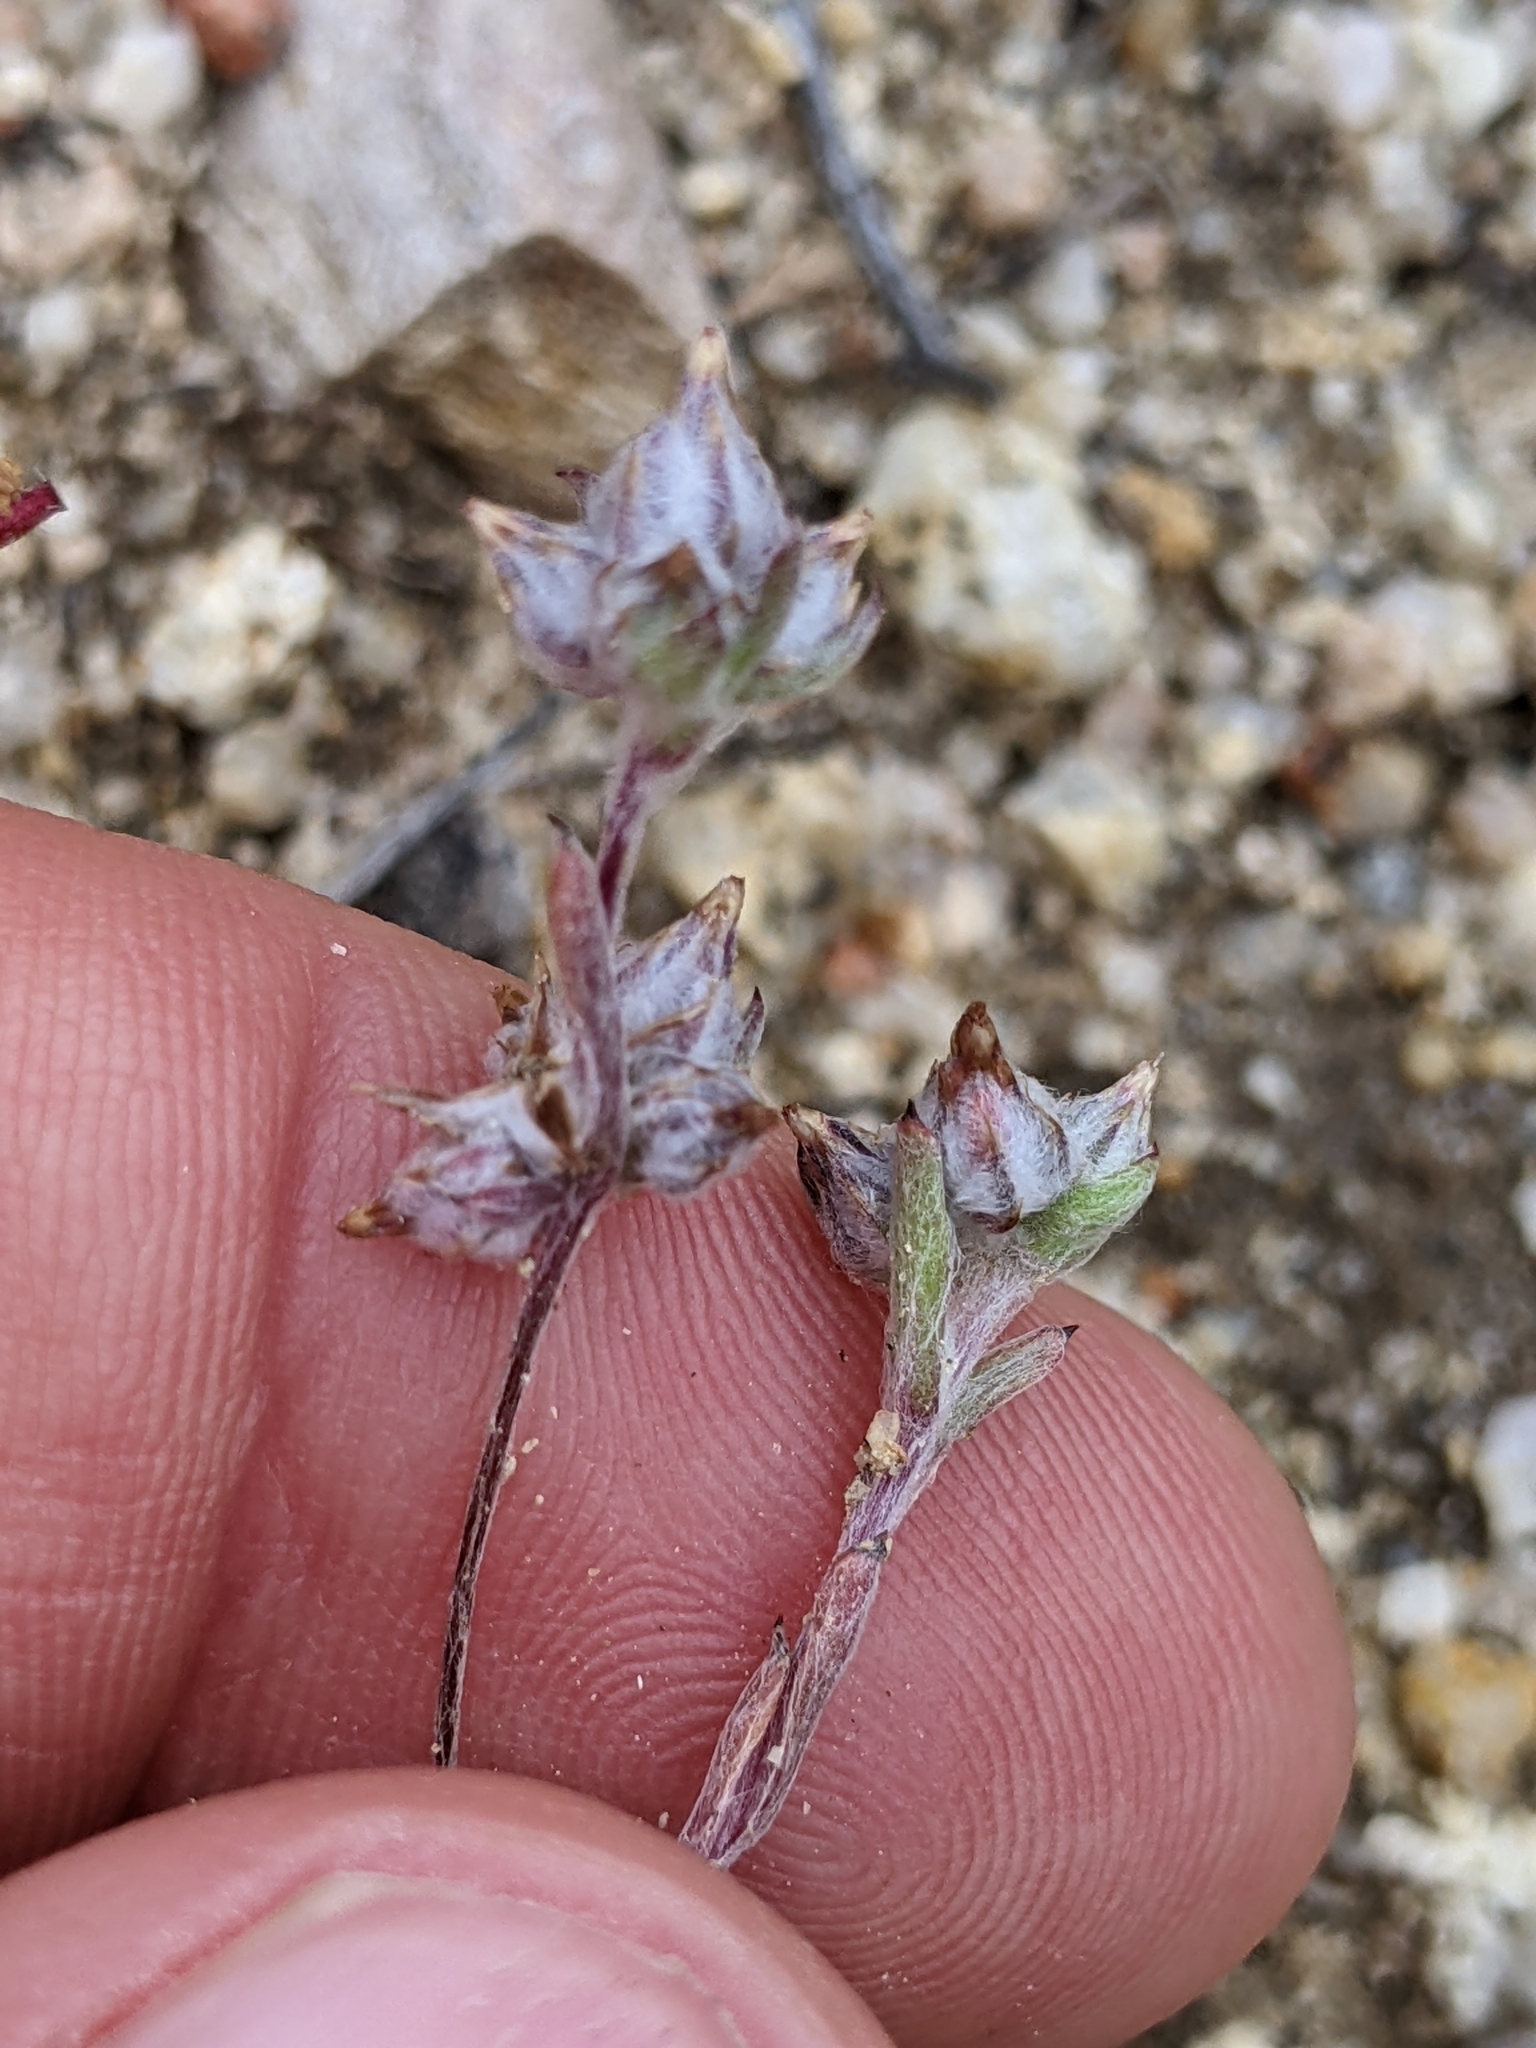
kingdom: Plantae
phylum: Tracheophyta
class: Magnoliopsida
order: Asterales
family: Asteraceae
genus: Logfia
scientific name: Logfia californica
